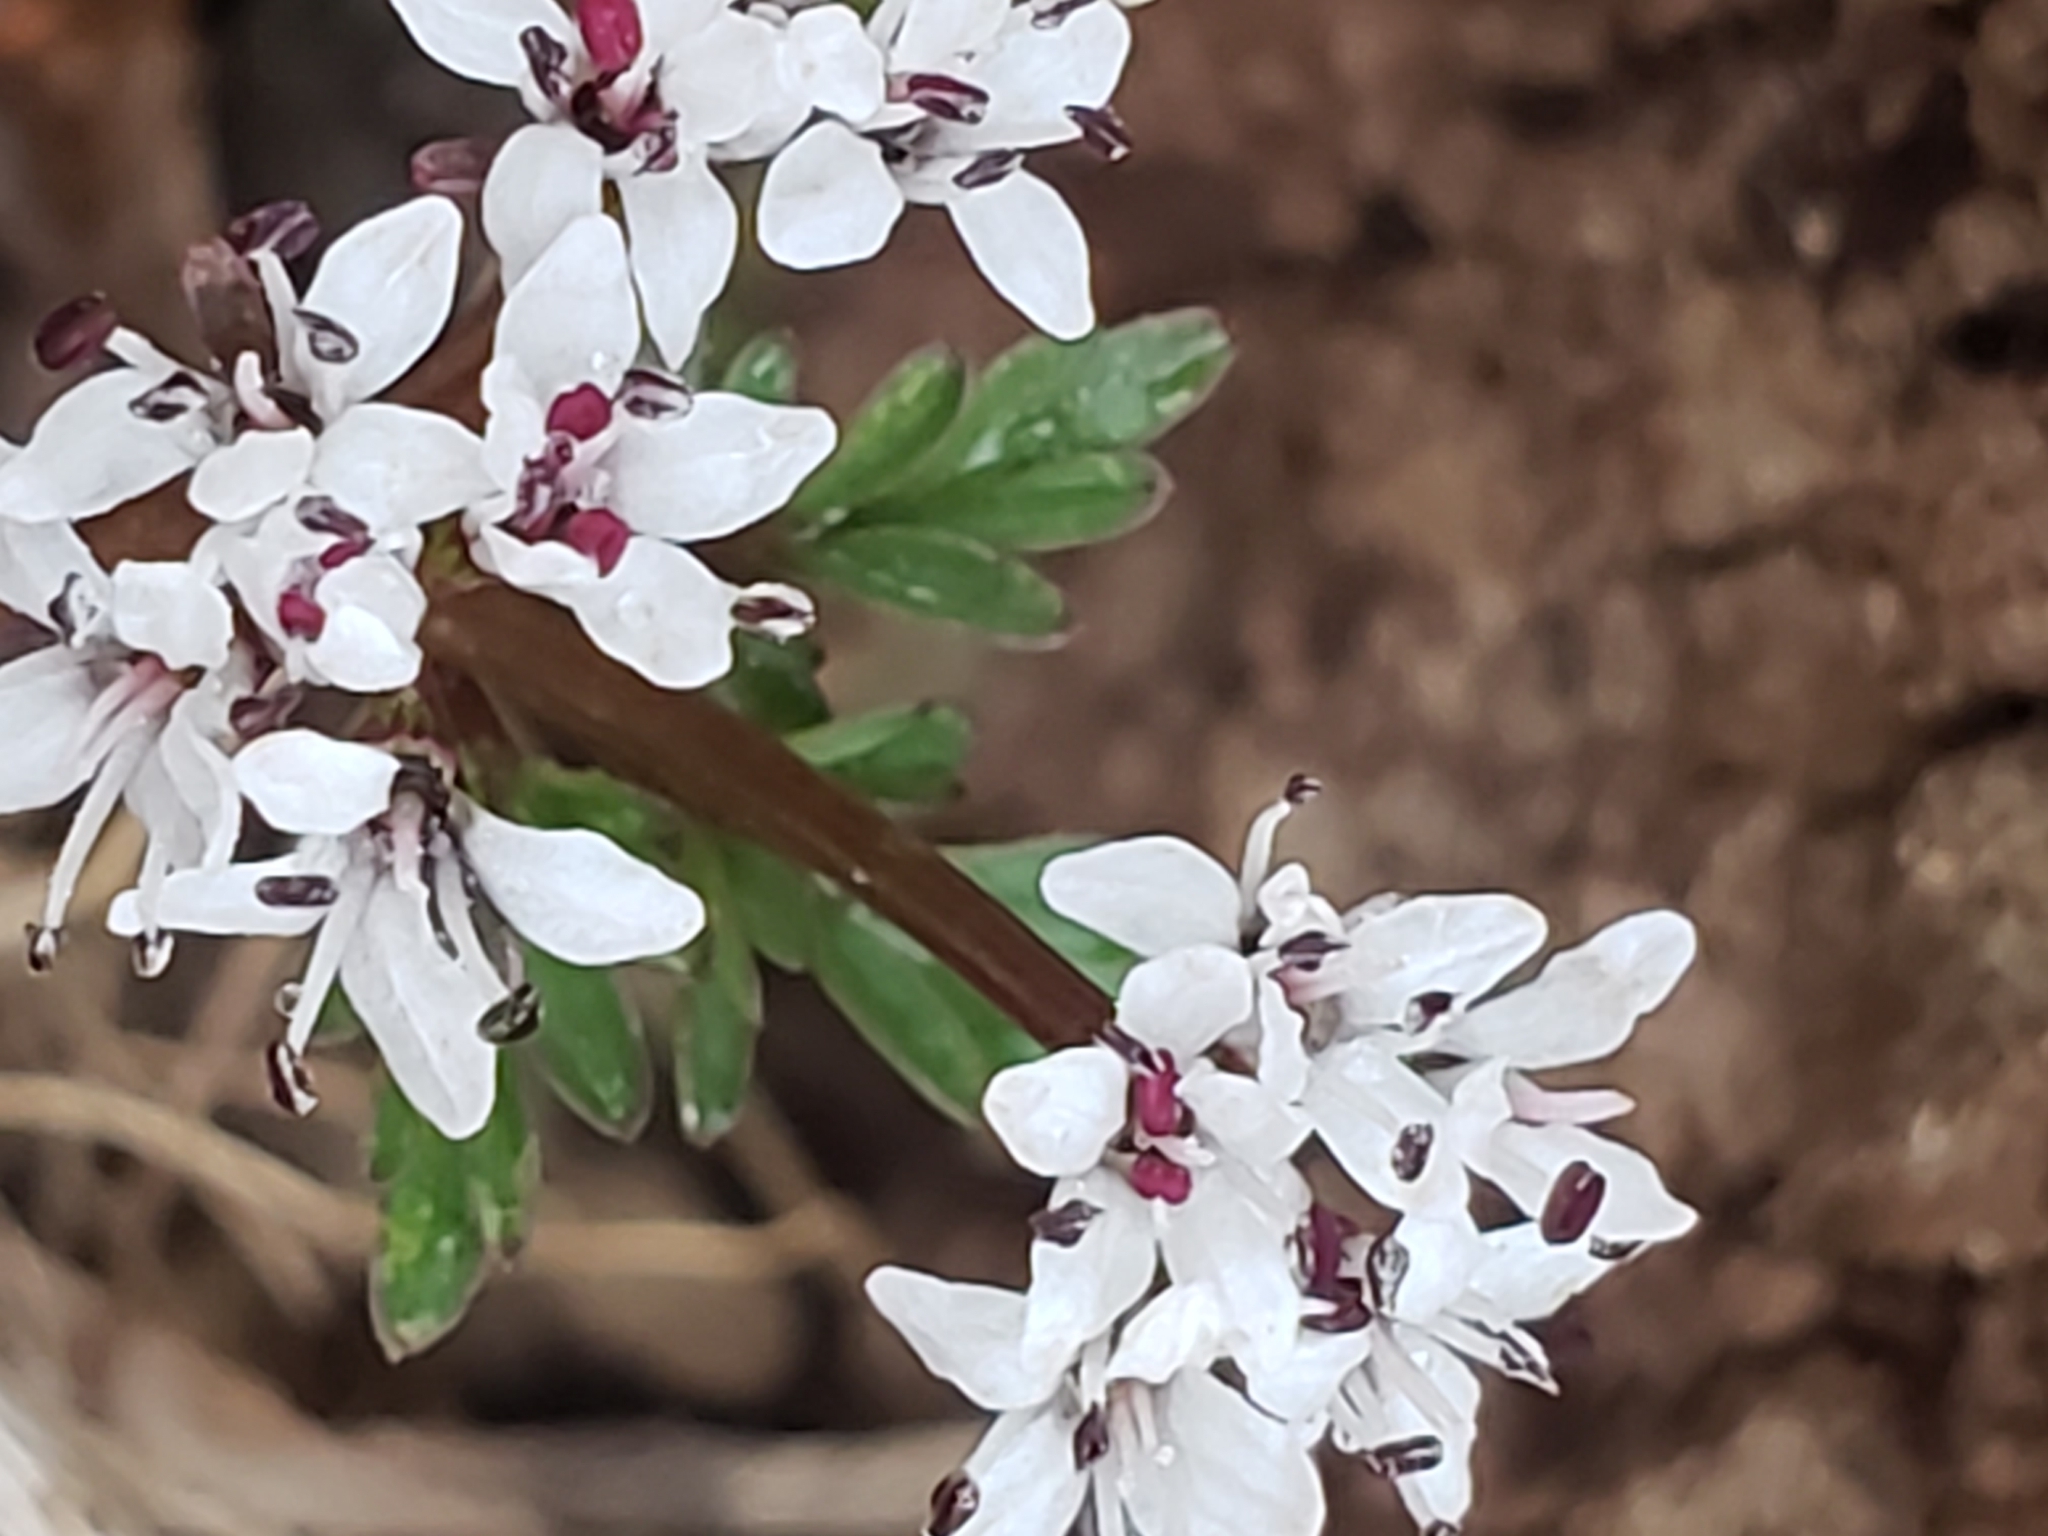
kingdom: Plantae
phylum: Tracheophyta
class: Magnoliopsida
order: Apiales
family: Apiaceae
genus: Erigenia
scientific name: Erigenia bulbosa
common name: Pepper-and-salt
